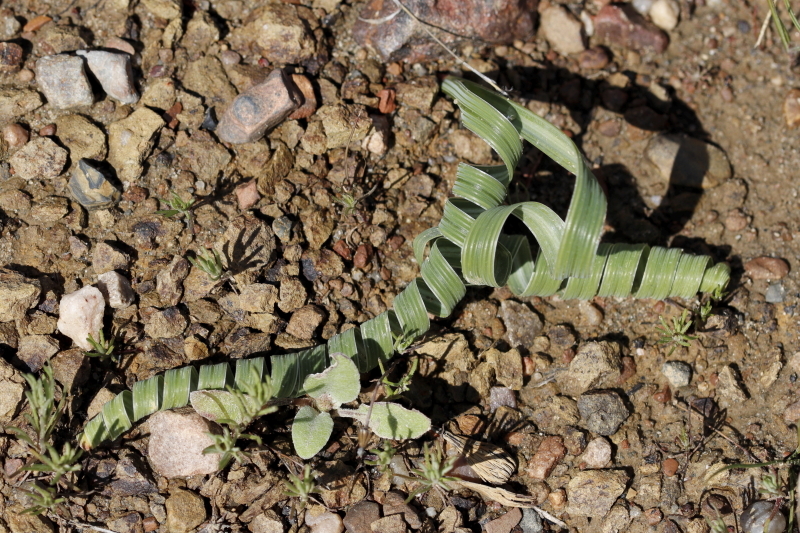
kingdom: Plantae
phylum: Tracheophyta
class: Liliopsida
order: Asparagales
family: Iridaceae
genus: Moraea
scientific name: Moraea pritzeliana
